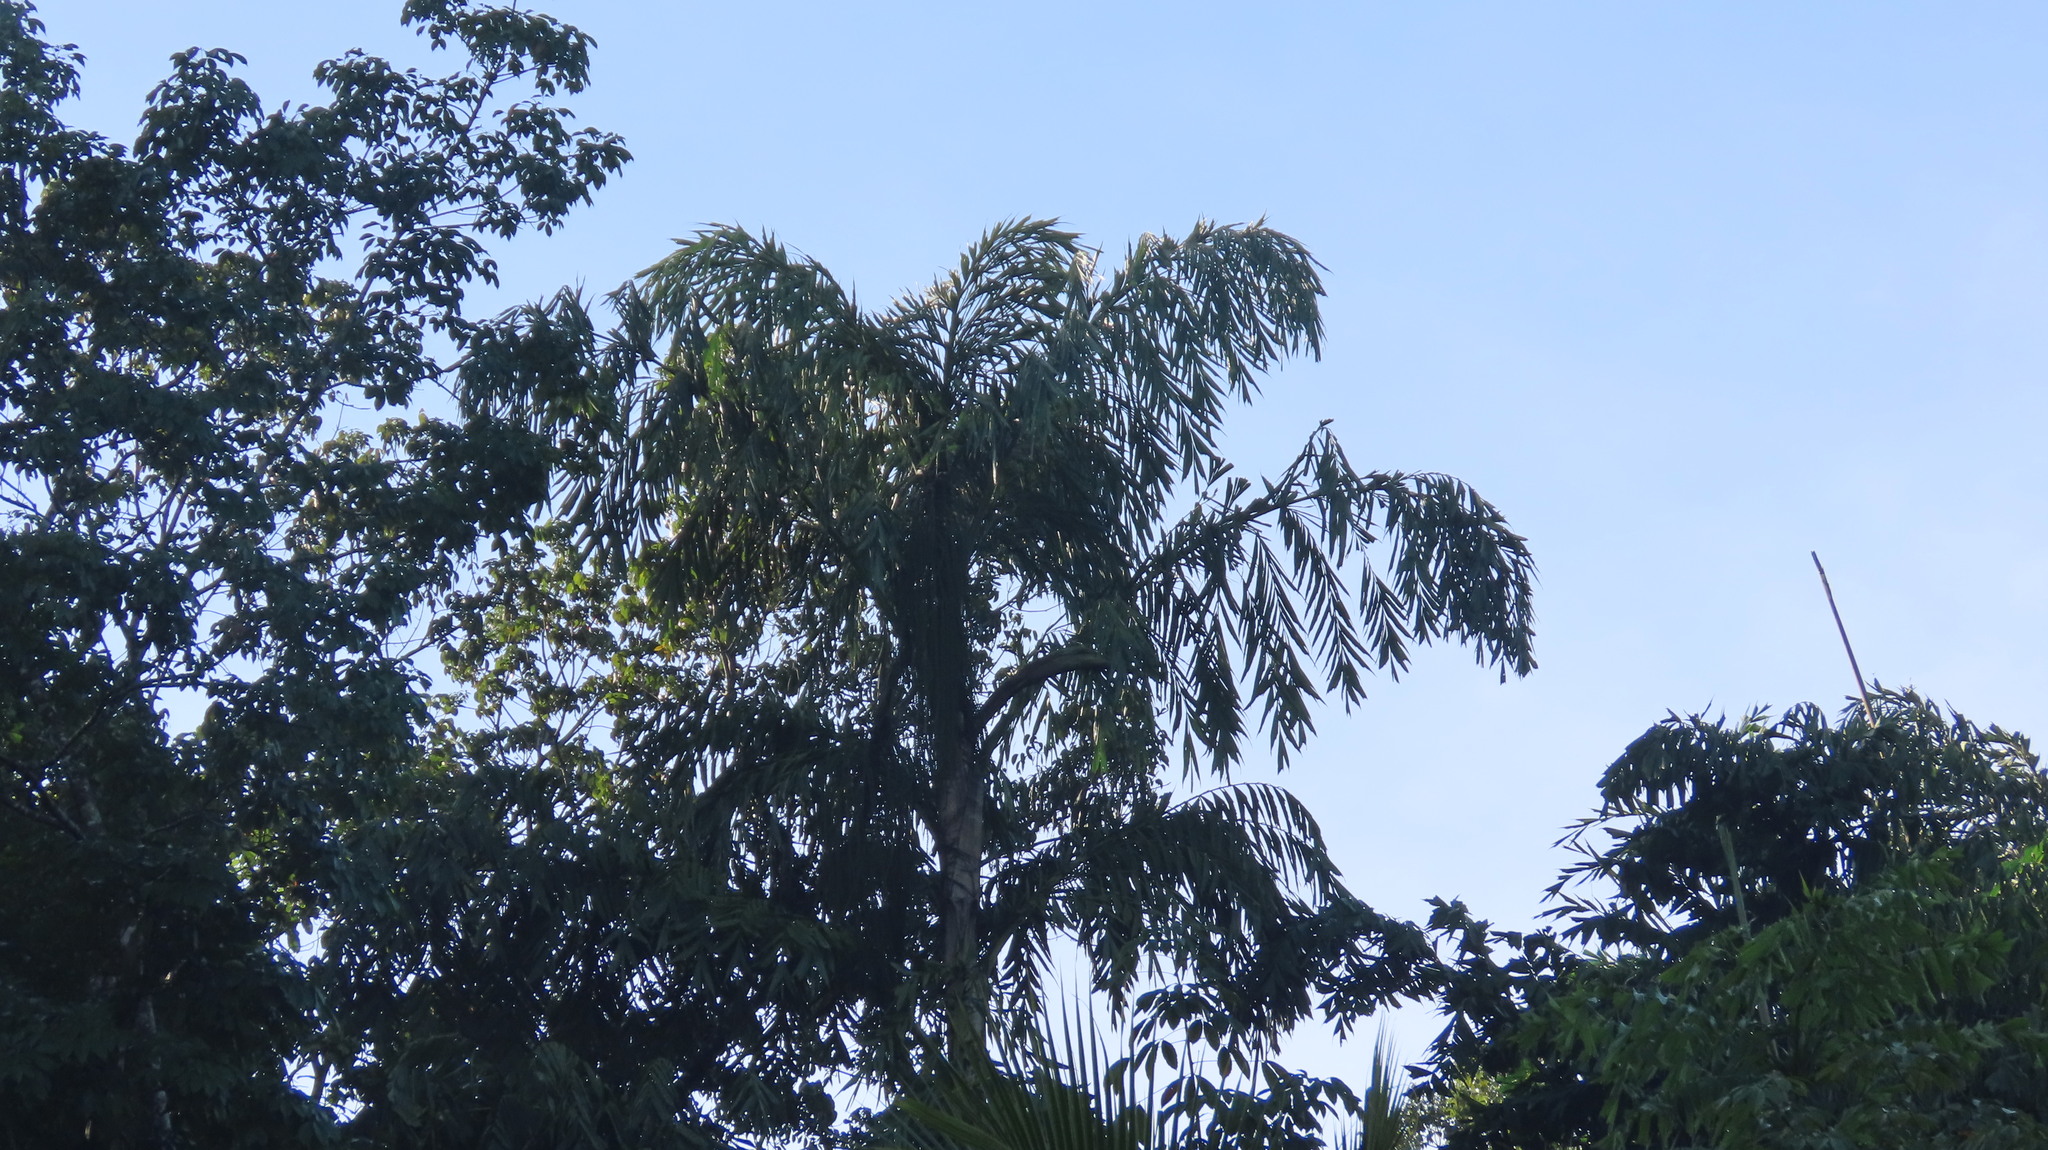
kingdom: Plantae
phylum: Tracheophyta
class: Liliopsida
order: Arecales
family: Arecaceae
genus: Caryota
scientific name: Caryota urens
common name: Jaggery palm
